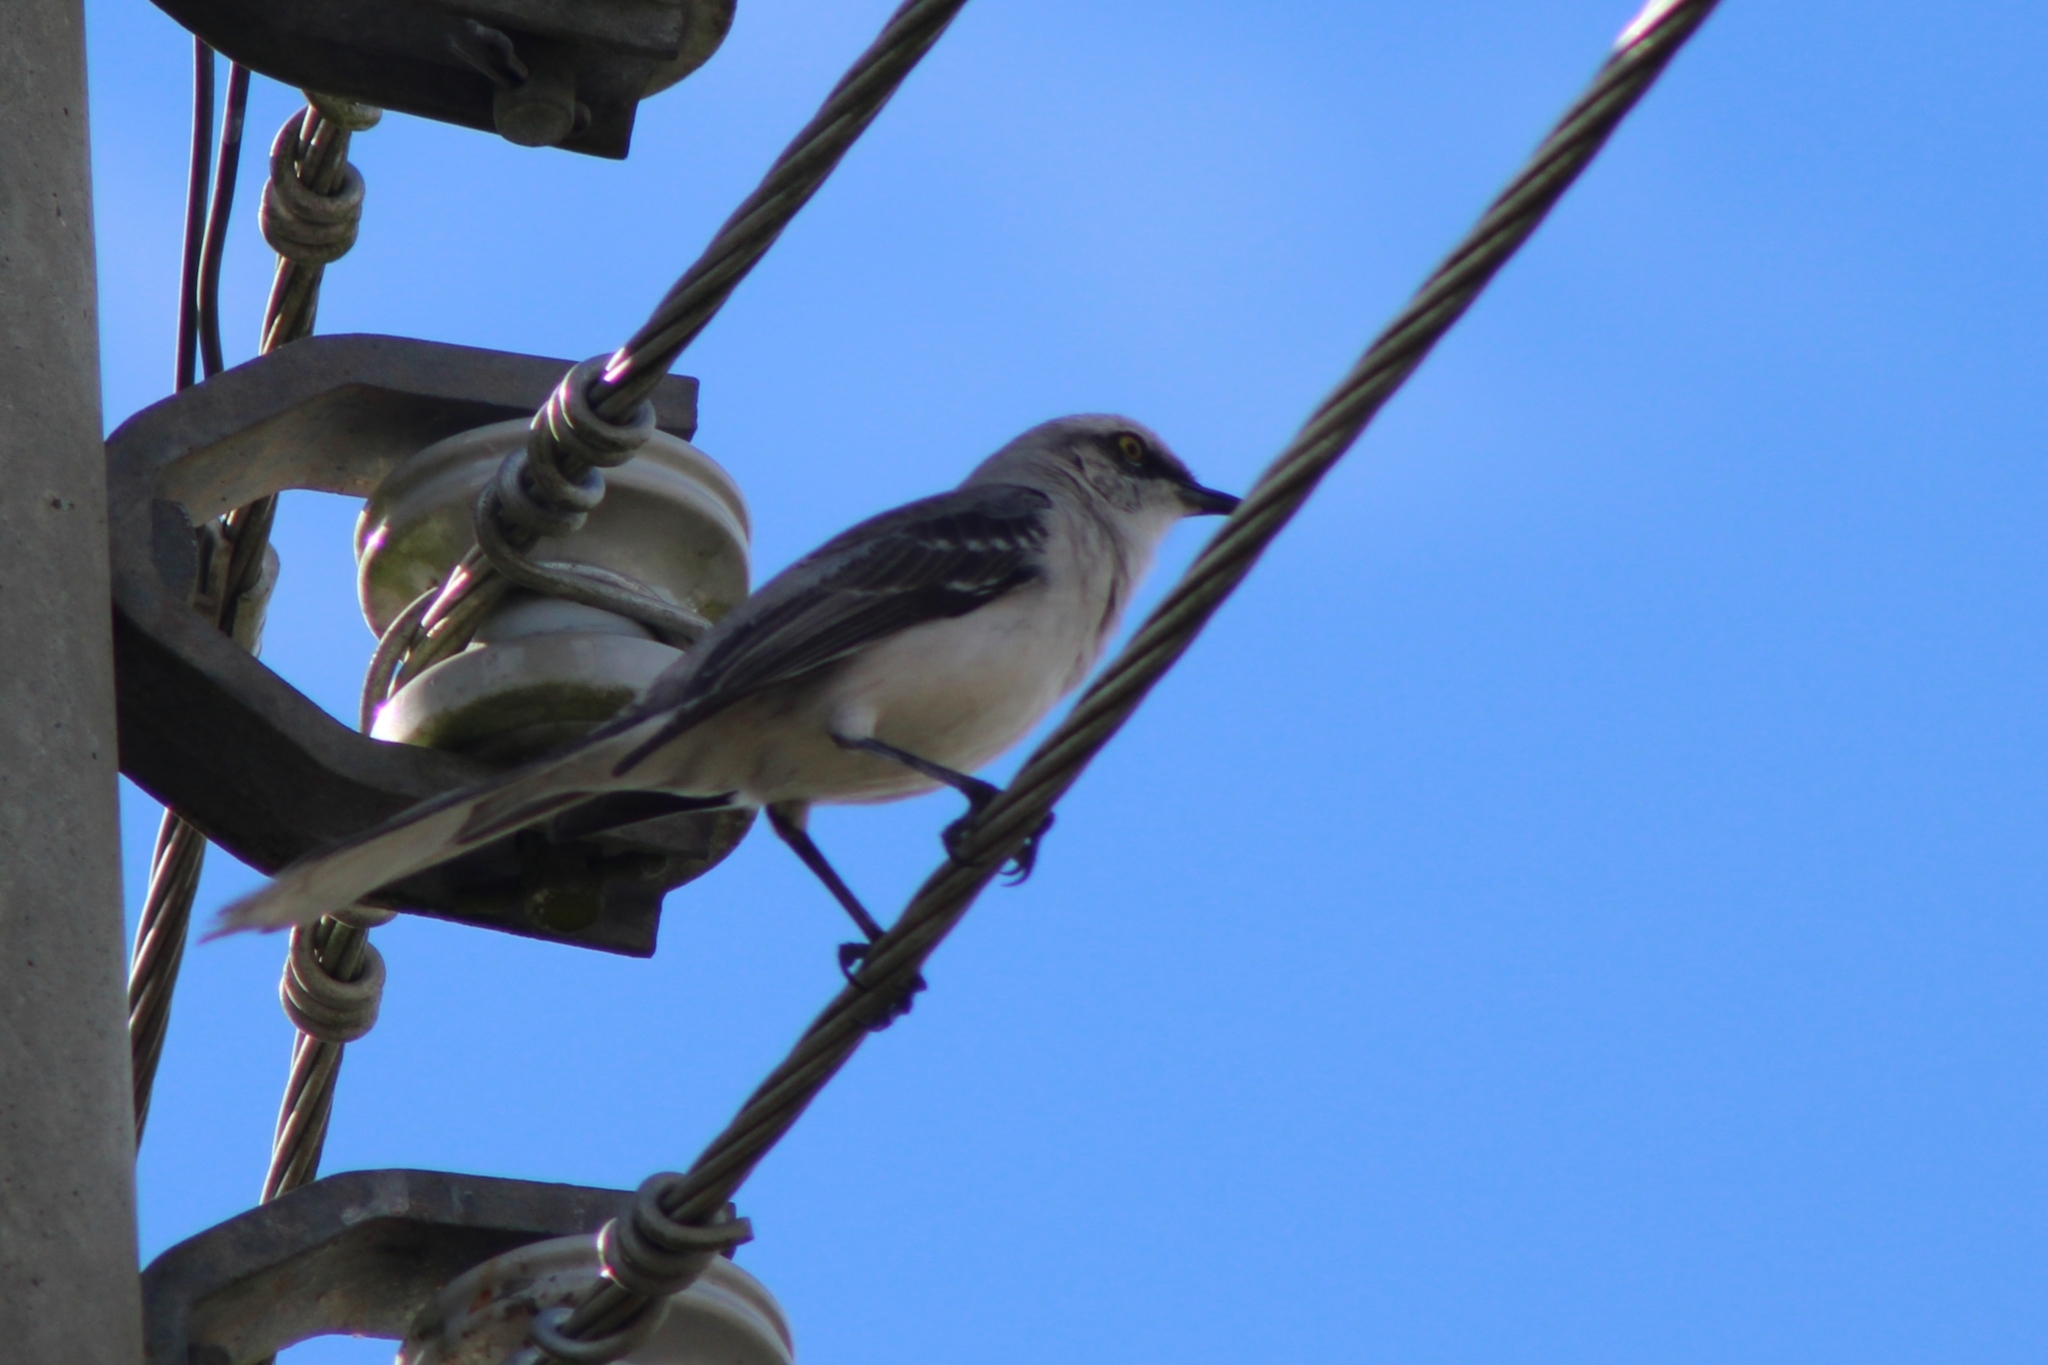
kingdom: Animalia
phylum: Chordata
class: Aves
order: Passeriformes
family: Mimidae
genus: Mimus
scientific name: Mimus gilvus
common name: Tropical mockingbird
